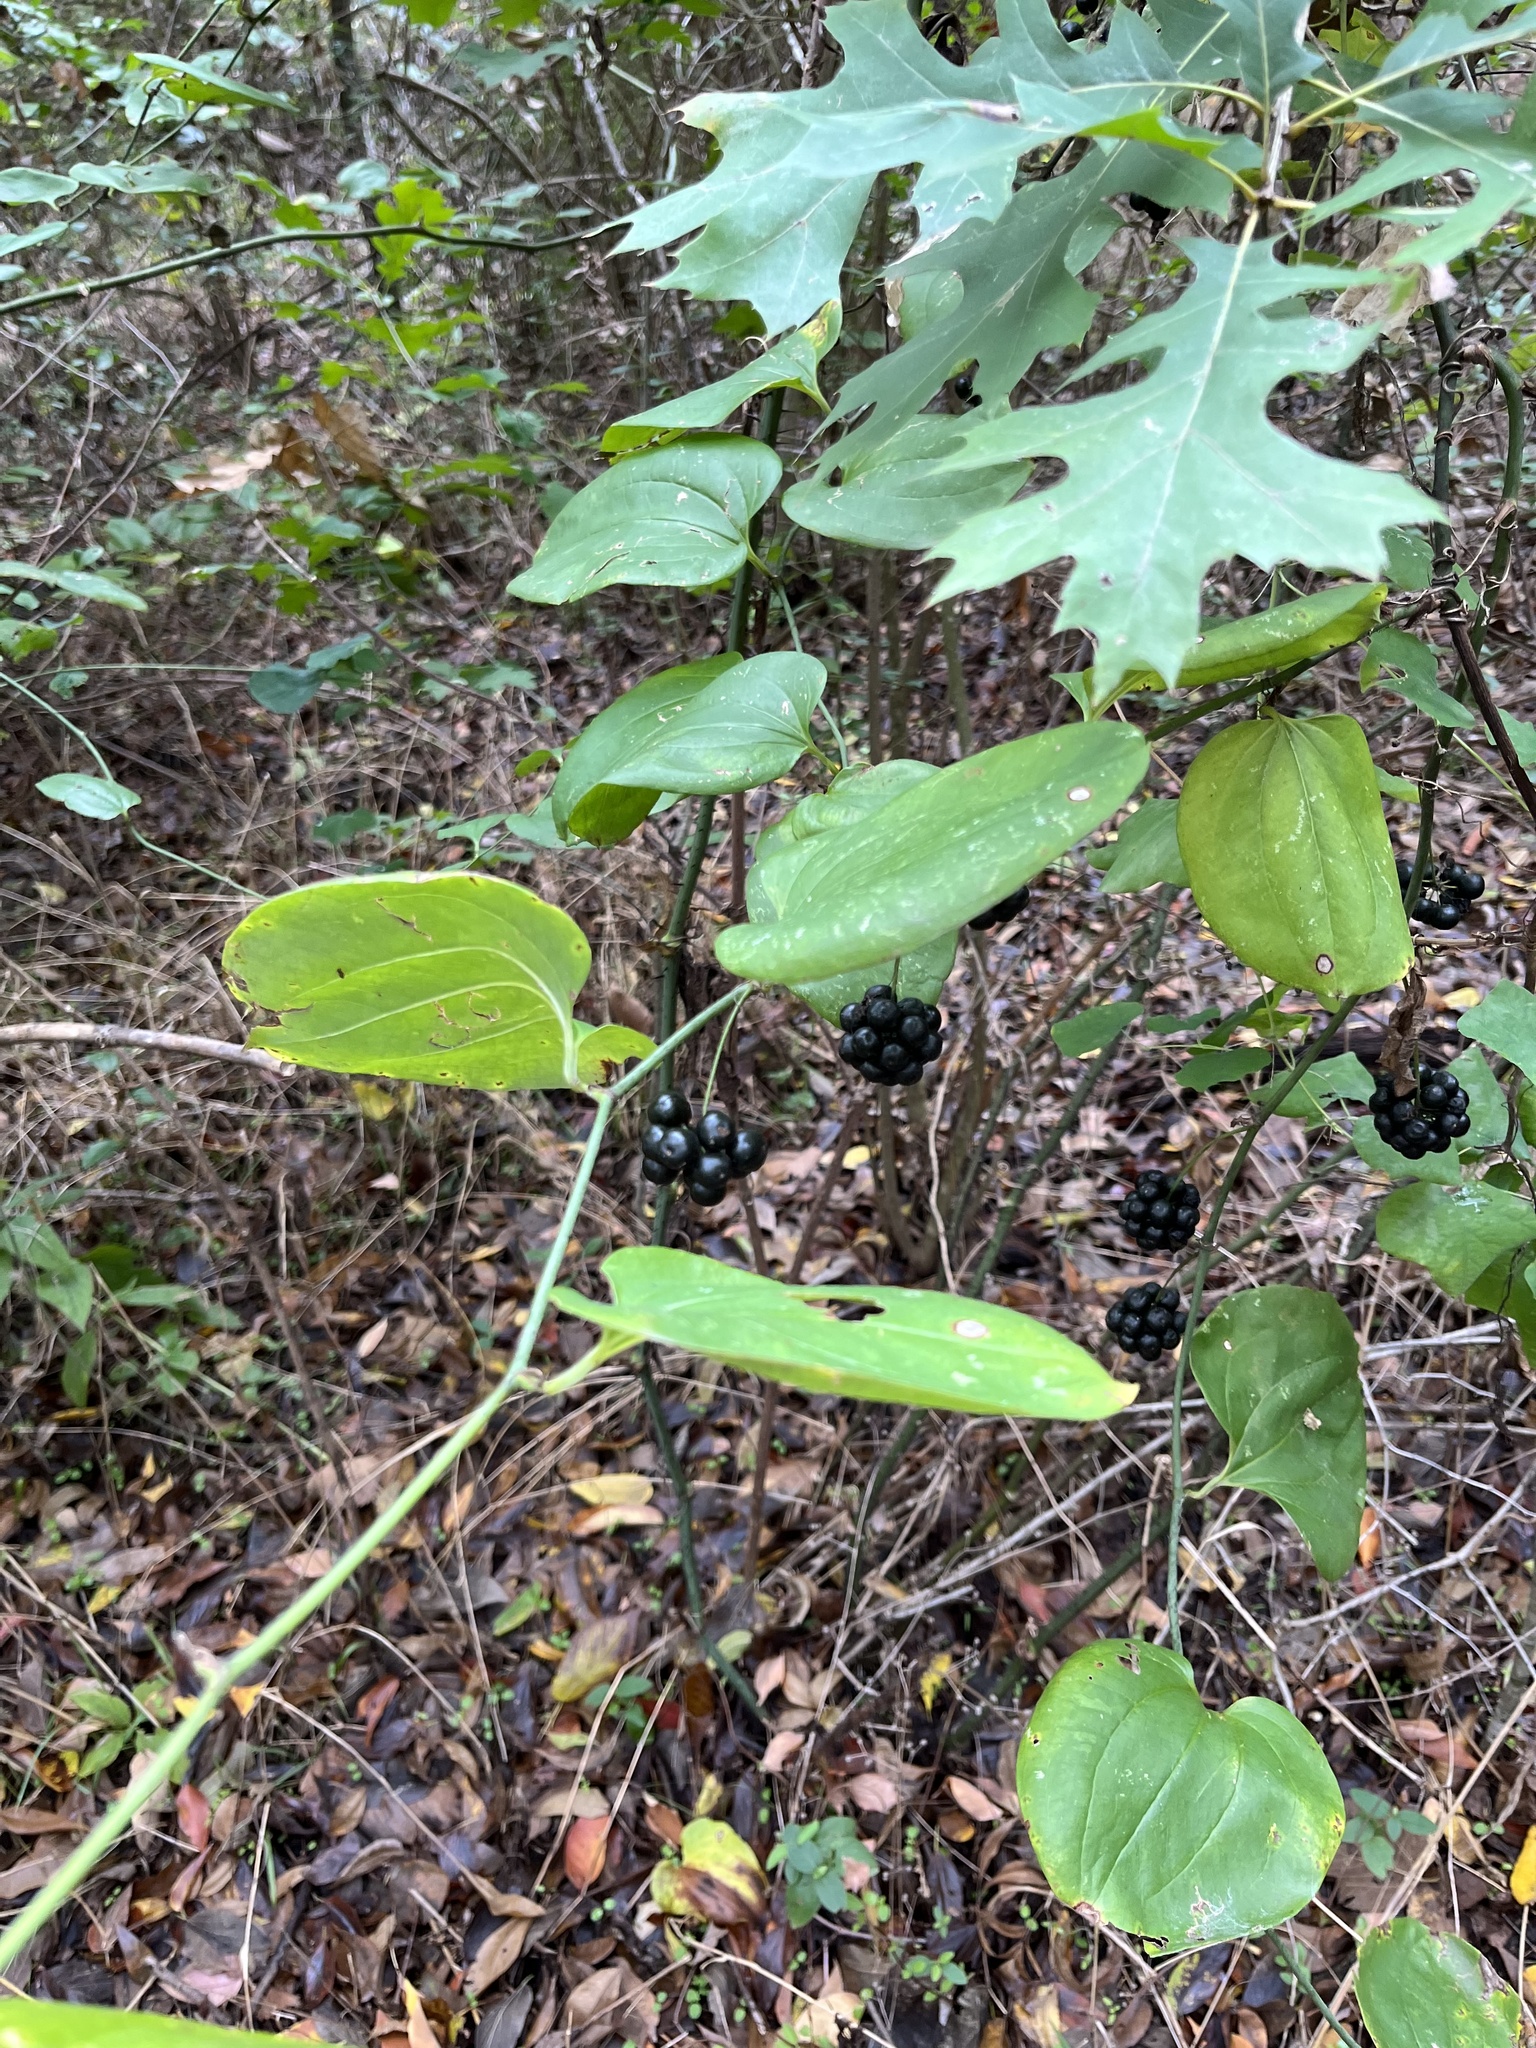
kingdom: Plantae
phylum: Tracheophyta
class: Liliopsida
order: Liliales
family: Smilacaceae
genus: Smilax
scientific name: Smilax rotundifolia
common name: Bullbriar
